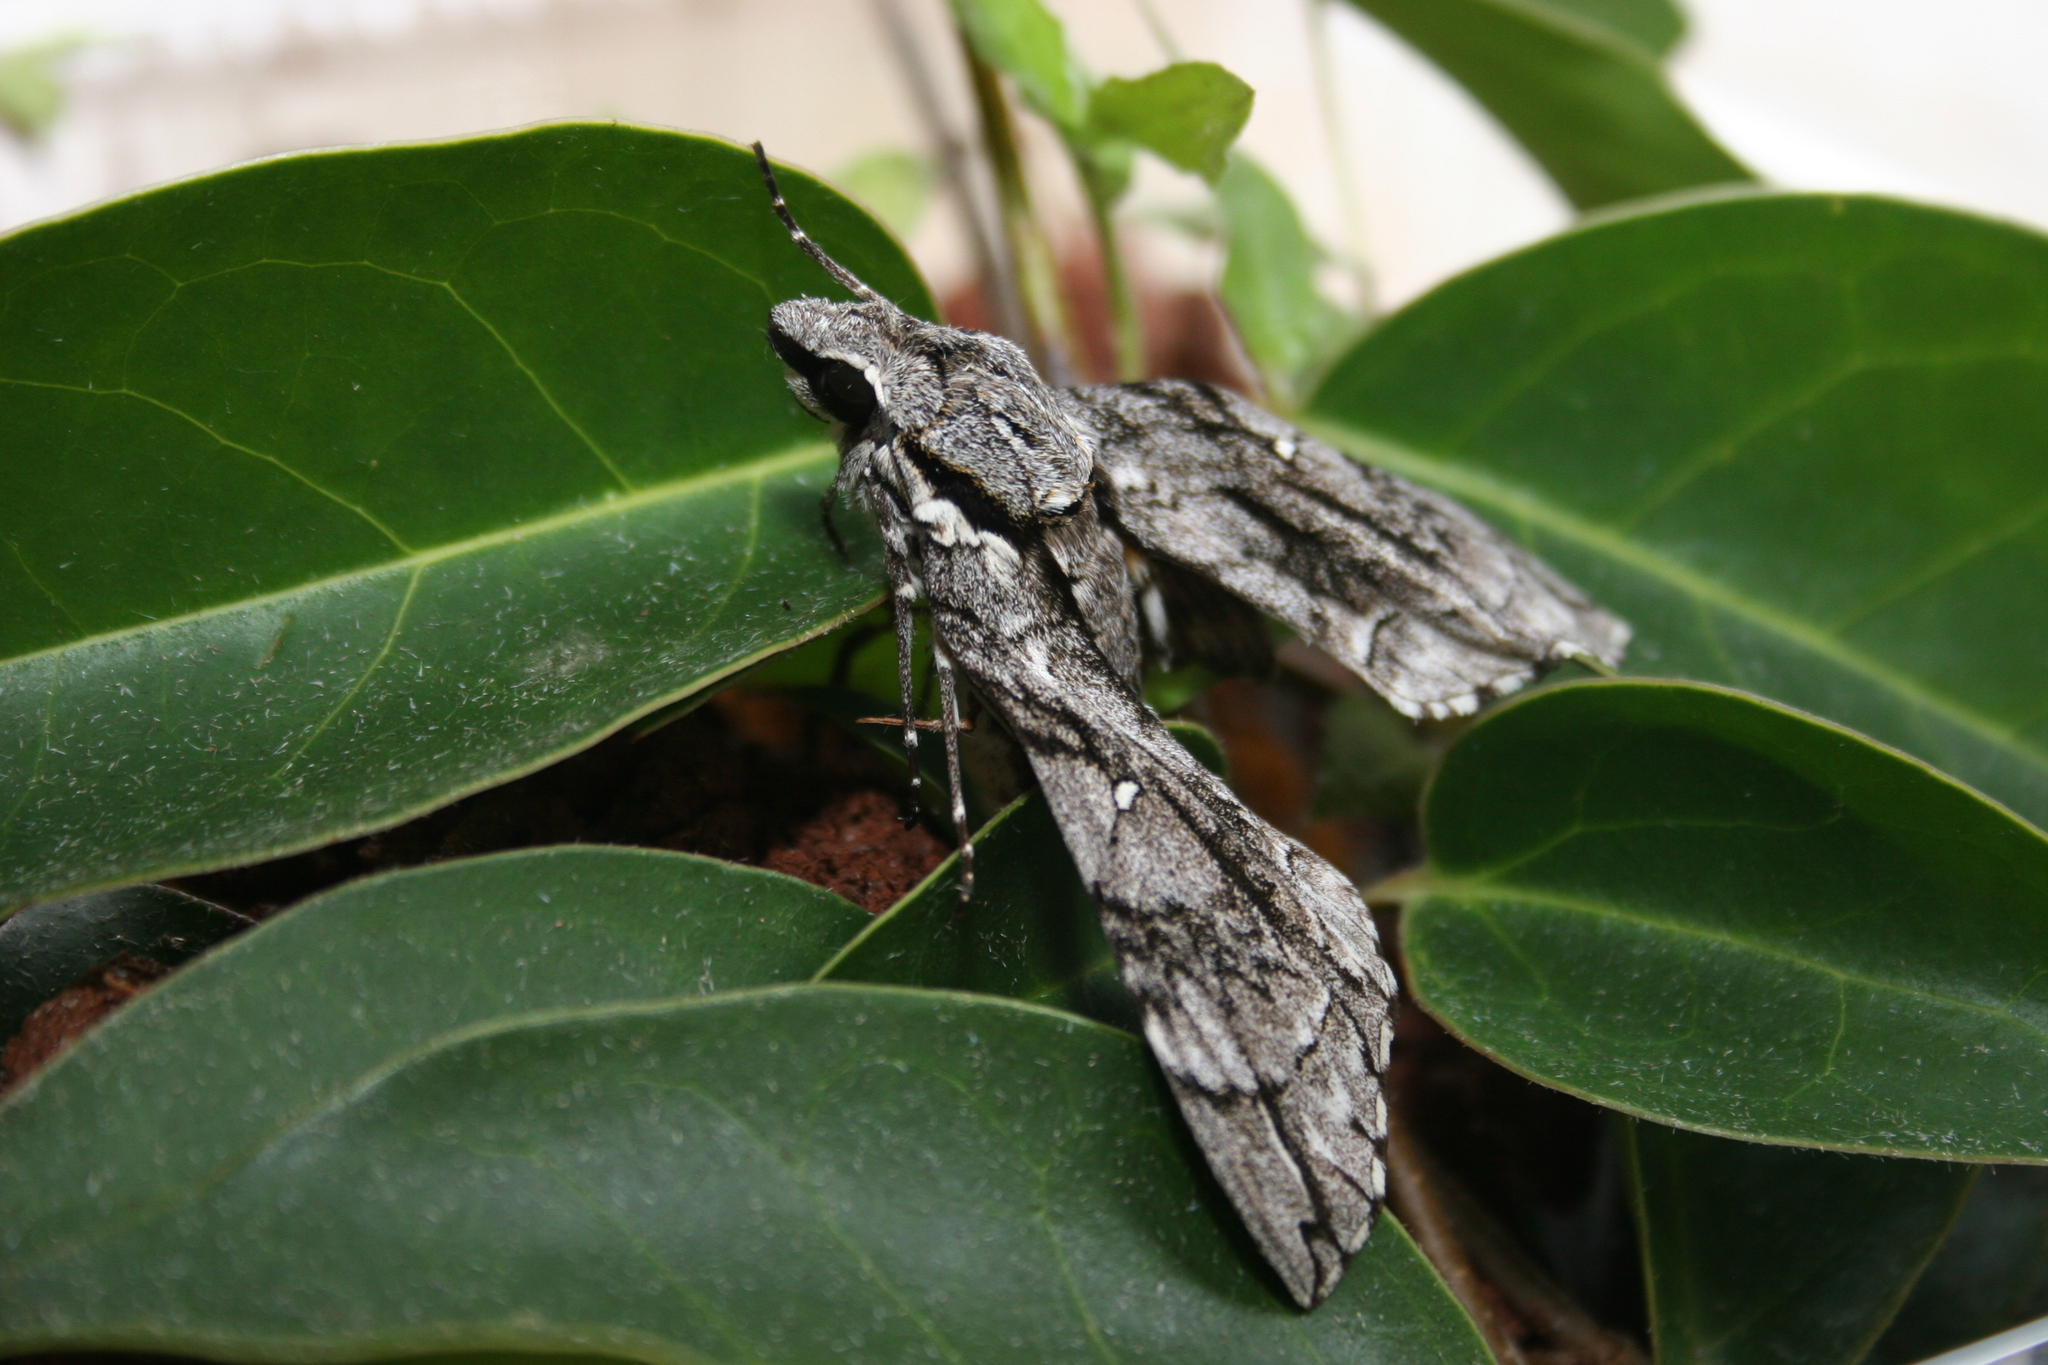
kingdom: Animalia
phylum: Arthropoda
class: Insecta
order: Lepidoptera
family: Sphingidae
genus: Panogena
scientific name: Panogena jasmini
